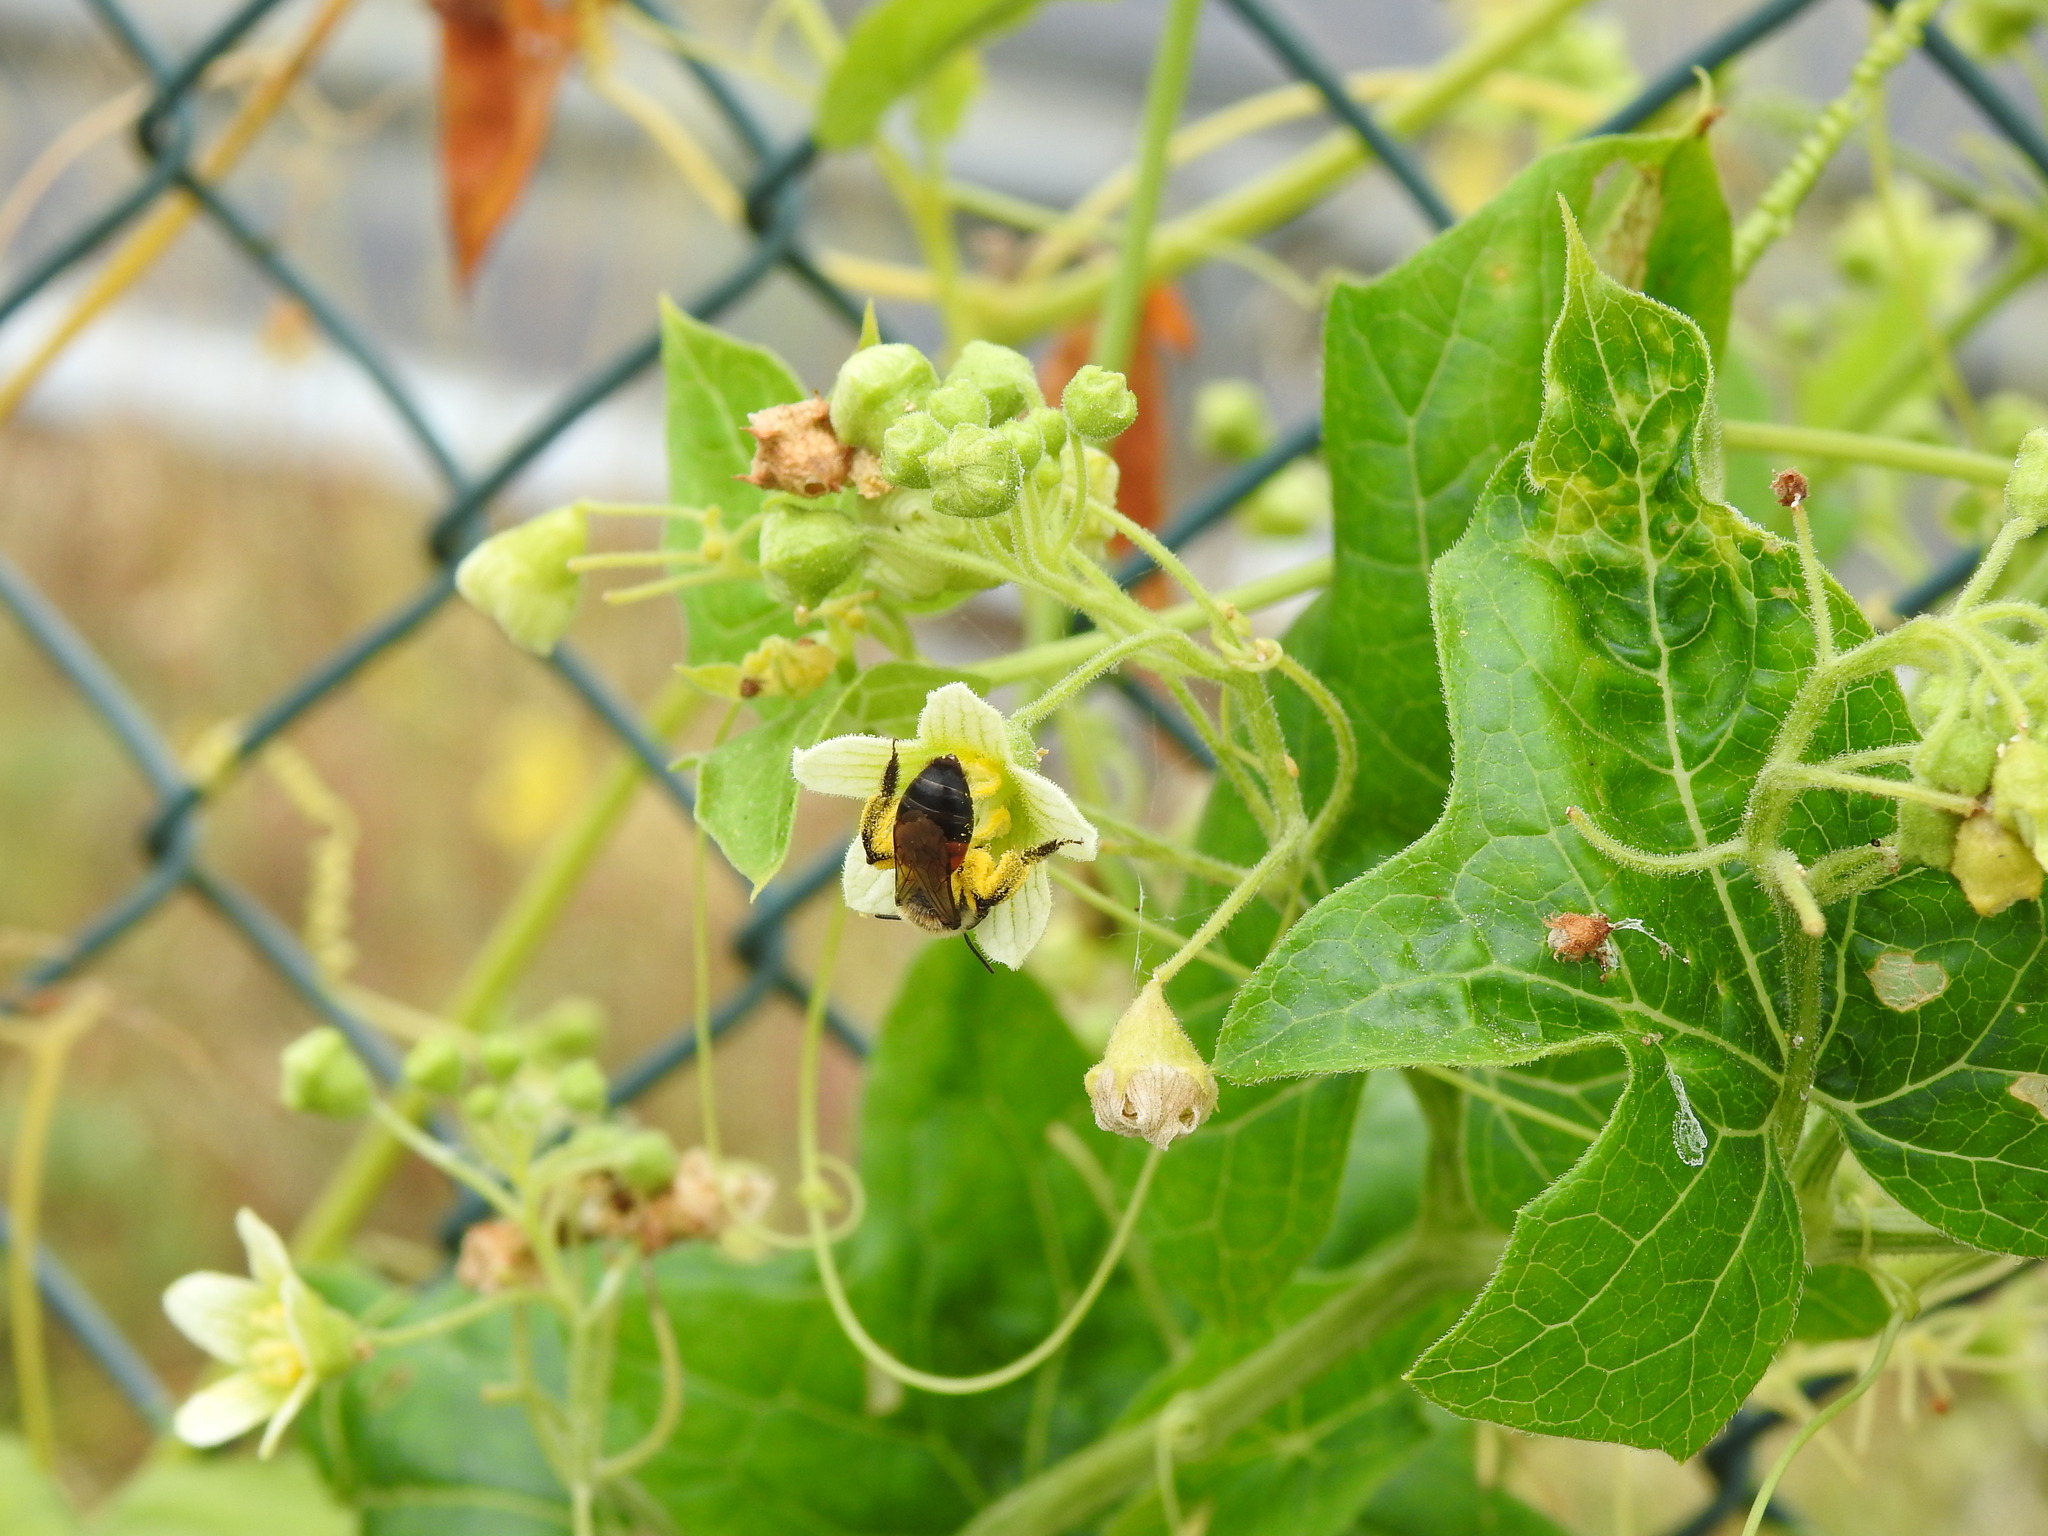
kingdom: Plantae
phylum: Tracheophyta
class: Magnoliopsida
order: Cucurbitales
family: Cucurbitaceae
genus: Bryonia
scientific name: Bryonia dioica
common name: White bryony
